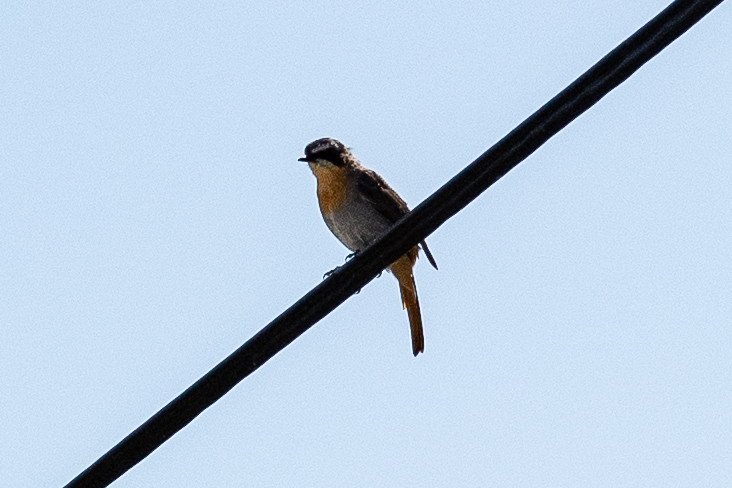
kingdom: Animalia
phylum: Chordata
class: Aves
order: Passeriformes
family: Muscicapidae
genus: Cossypha
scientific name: Cossypha caffra
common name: Cape robin-chat
